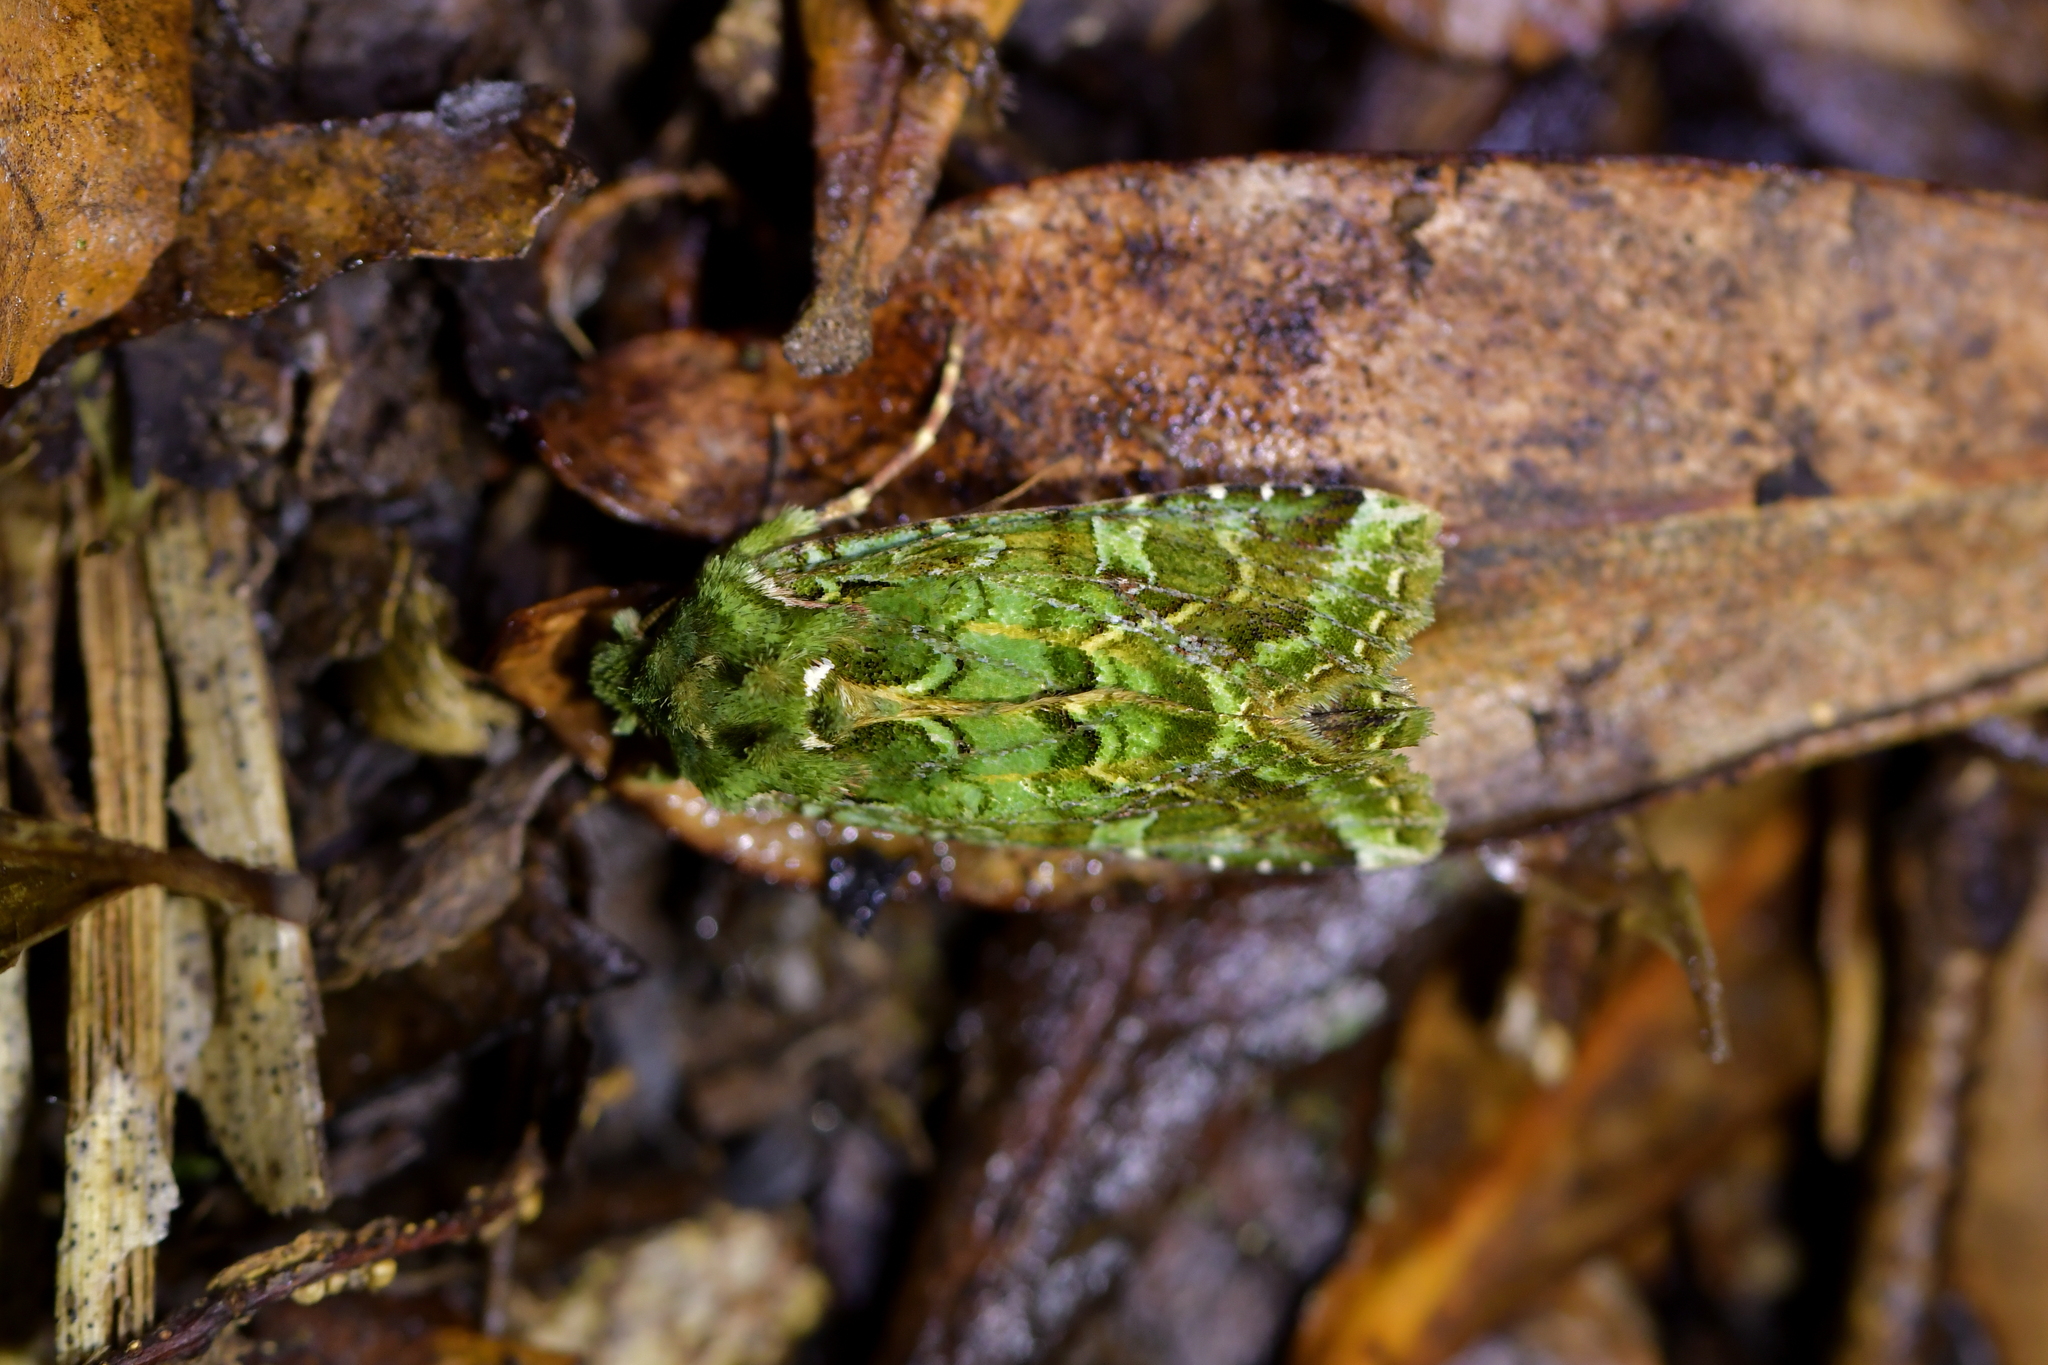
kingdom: Animalia
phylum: Arthropoda
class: Insecta
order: Lepidoptera
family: Noctuidae
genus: Feredayia
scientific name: Feredayia grammosa
